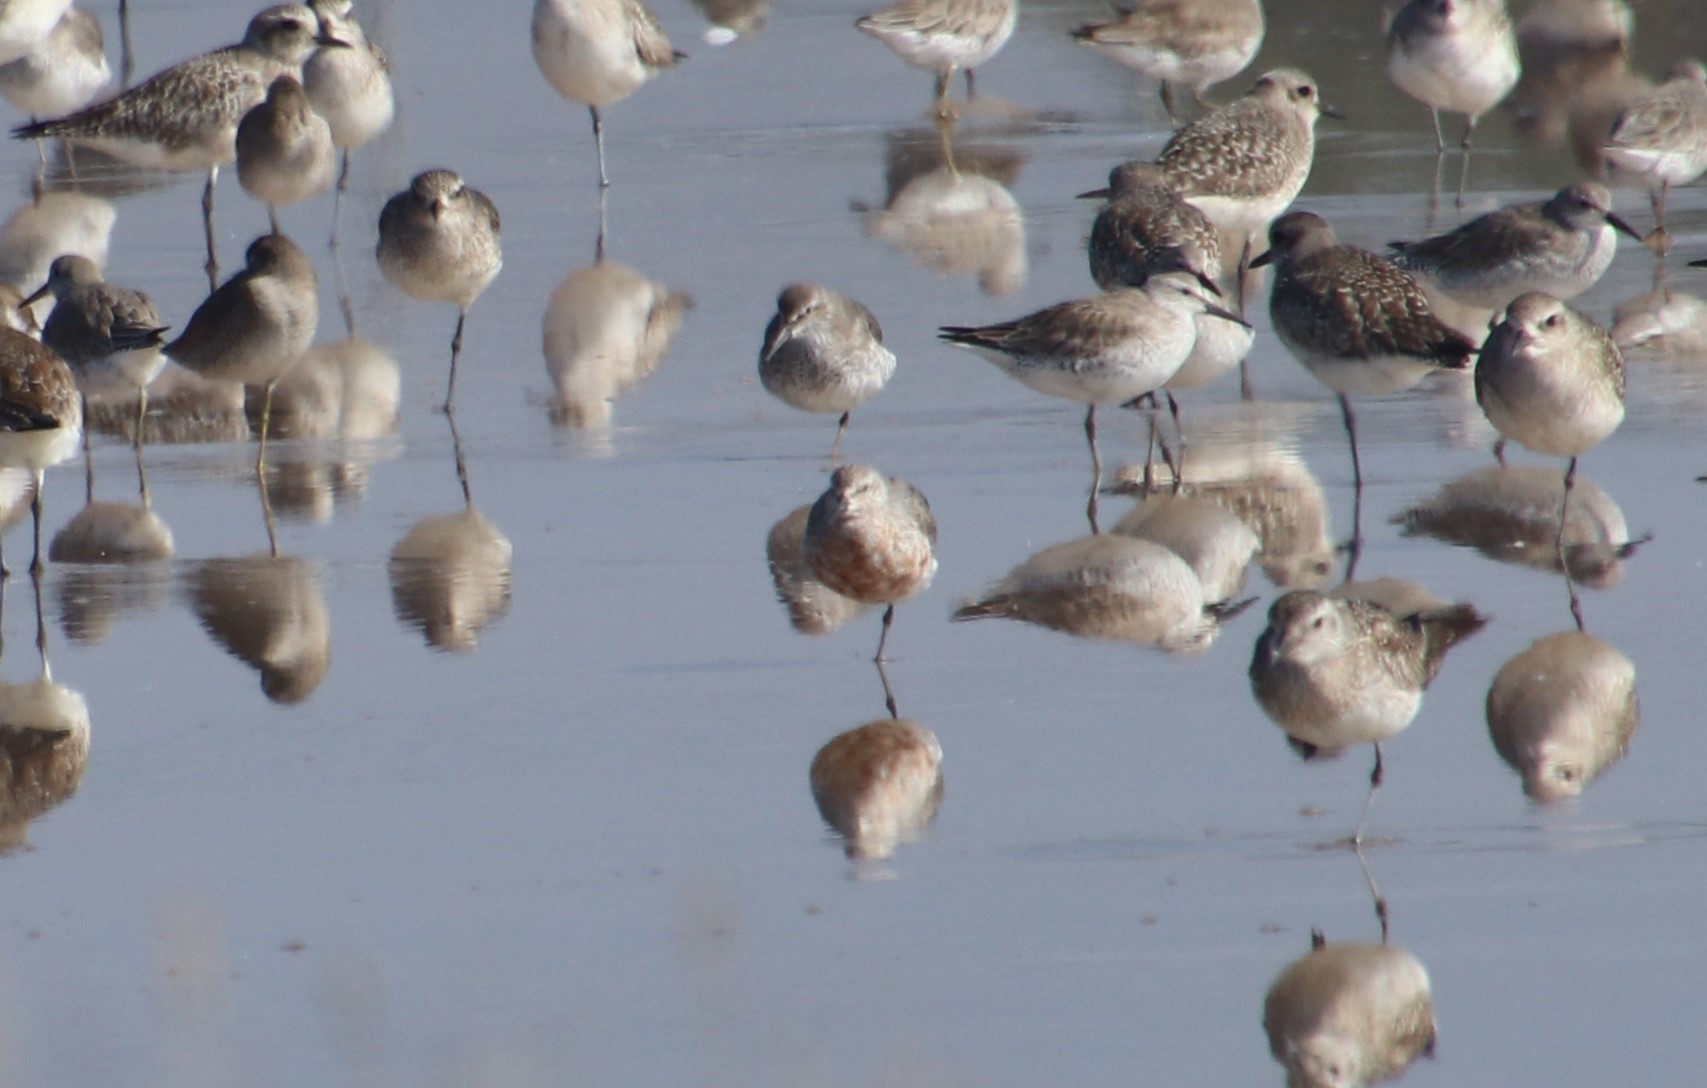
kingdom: Animalia
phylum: Chordata
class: Aves
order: Charadriiformes
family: Scolopacidae
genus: Calidris
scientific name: Calidris canutus
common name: Red knot
